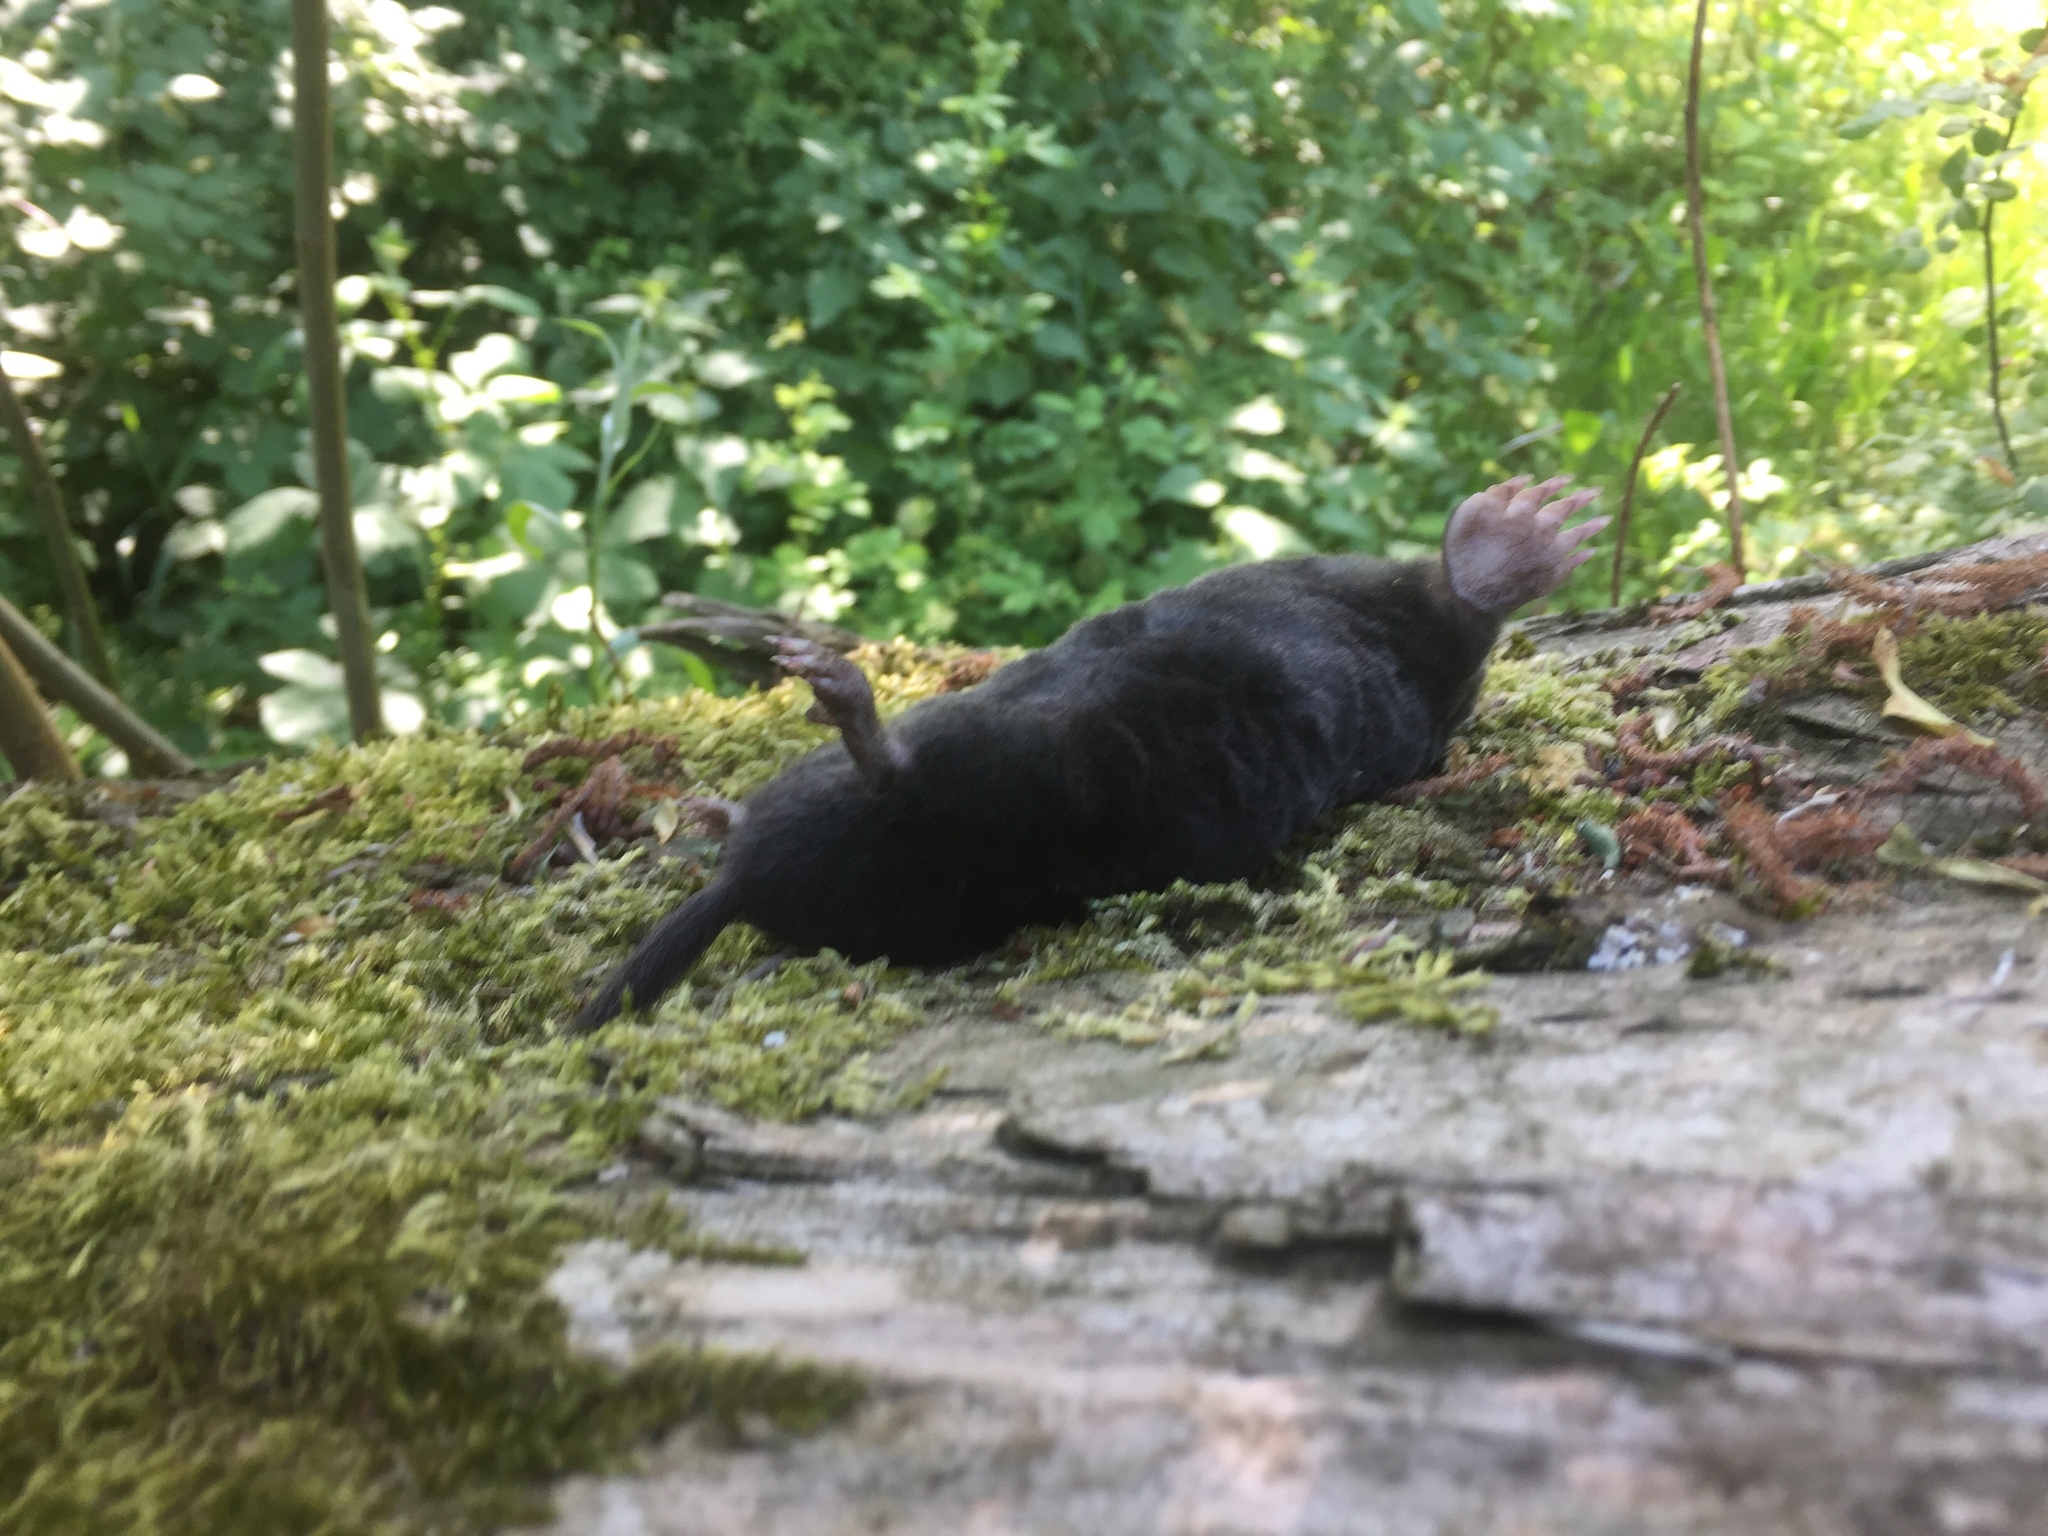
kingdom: Animalia
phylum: Chordata
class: Mammalia
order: Soricomorpha
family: Talpidae
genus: Talpa
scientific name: Talpa europaea
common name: European mole
